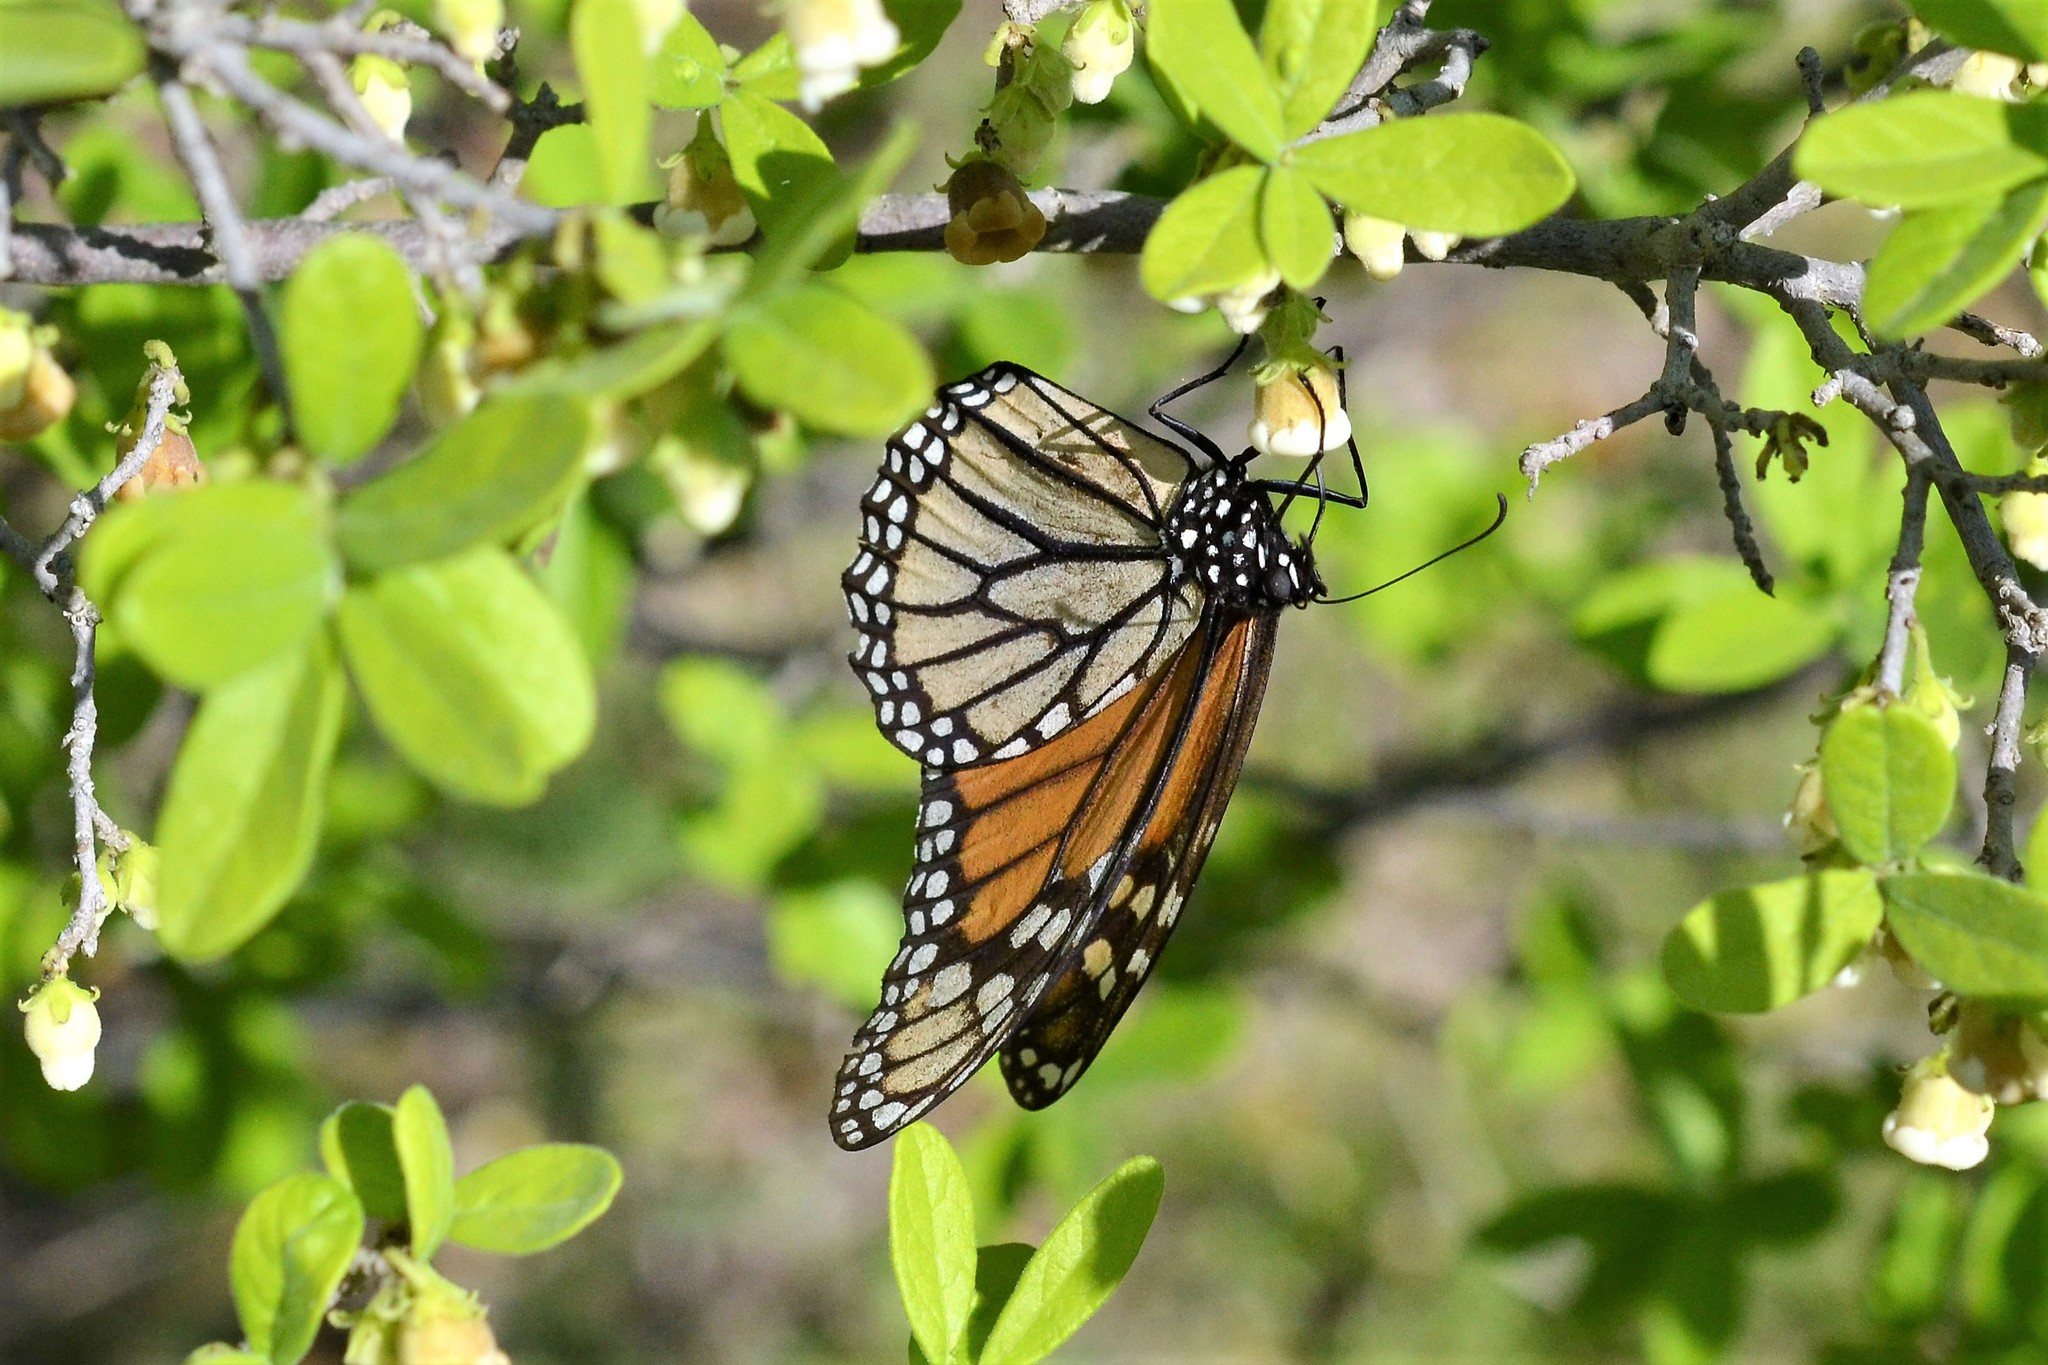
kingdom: Animalia
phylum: Arthropoda
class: Insecta
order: Lepidoptera
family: Nymphalidae
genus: Danaus
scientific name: Danaus plexippus
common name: Monarch
